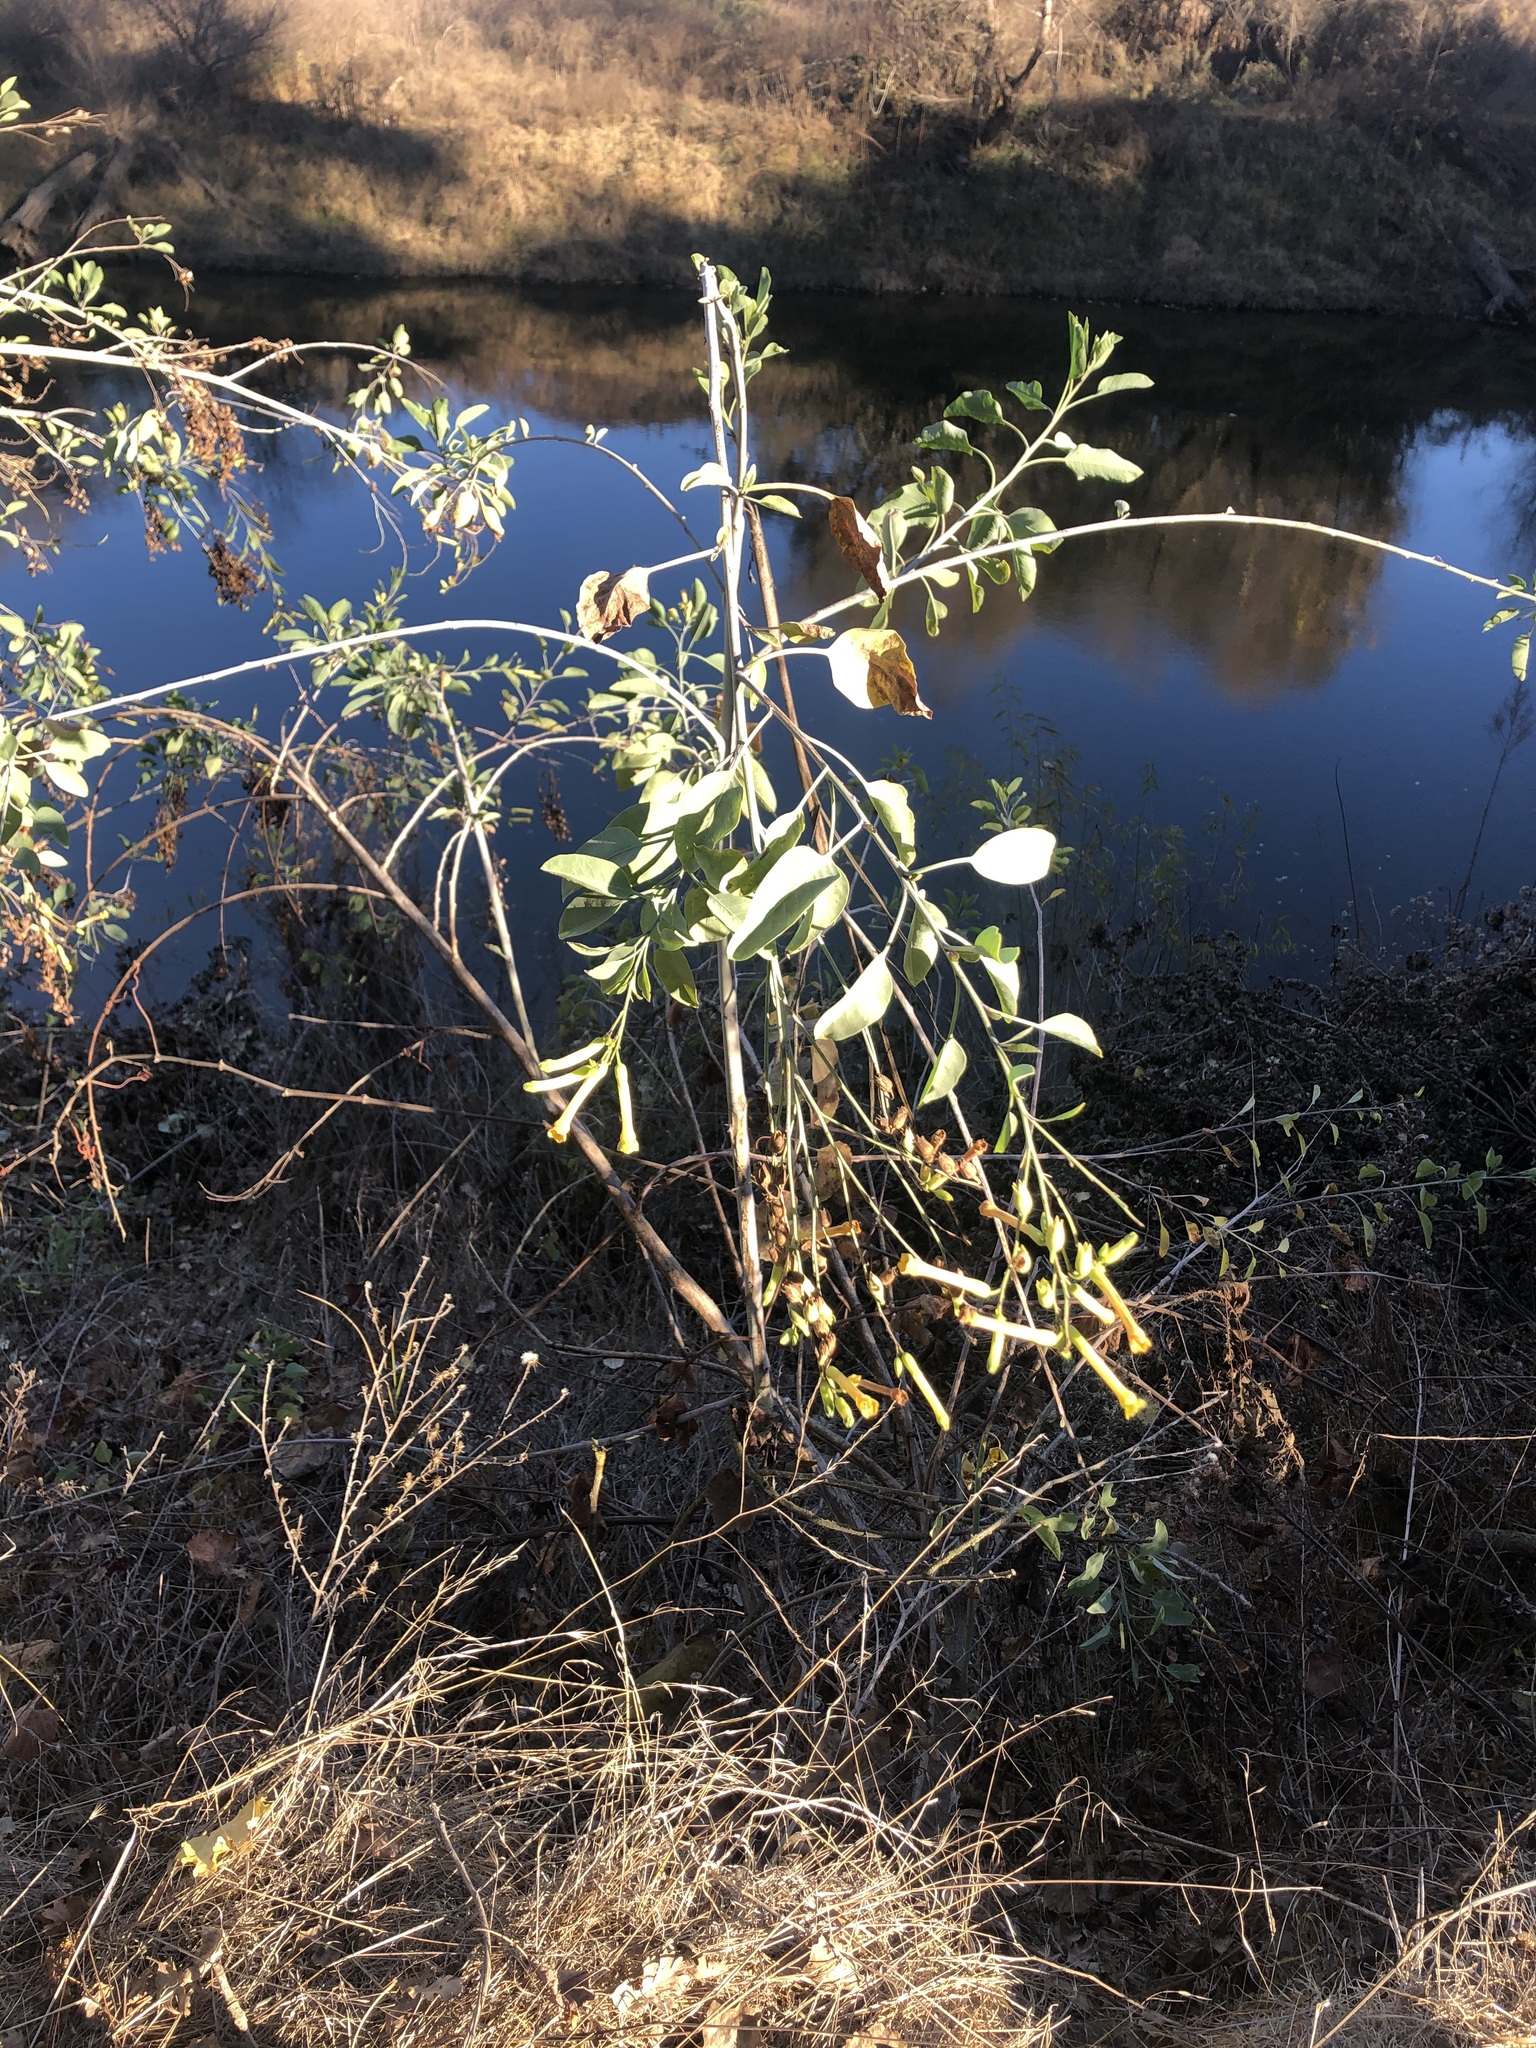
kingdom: Plantae
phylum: Tracheophyta
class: Magnoliopsida
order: Solanales
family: Solanaceae
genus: Nicotiana
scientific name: Nicotiana glauca
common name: Tree tobacco
